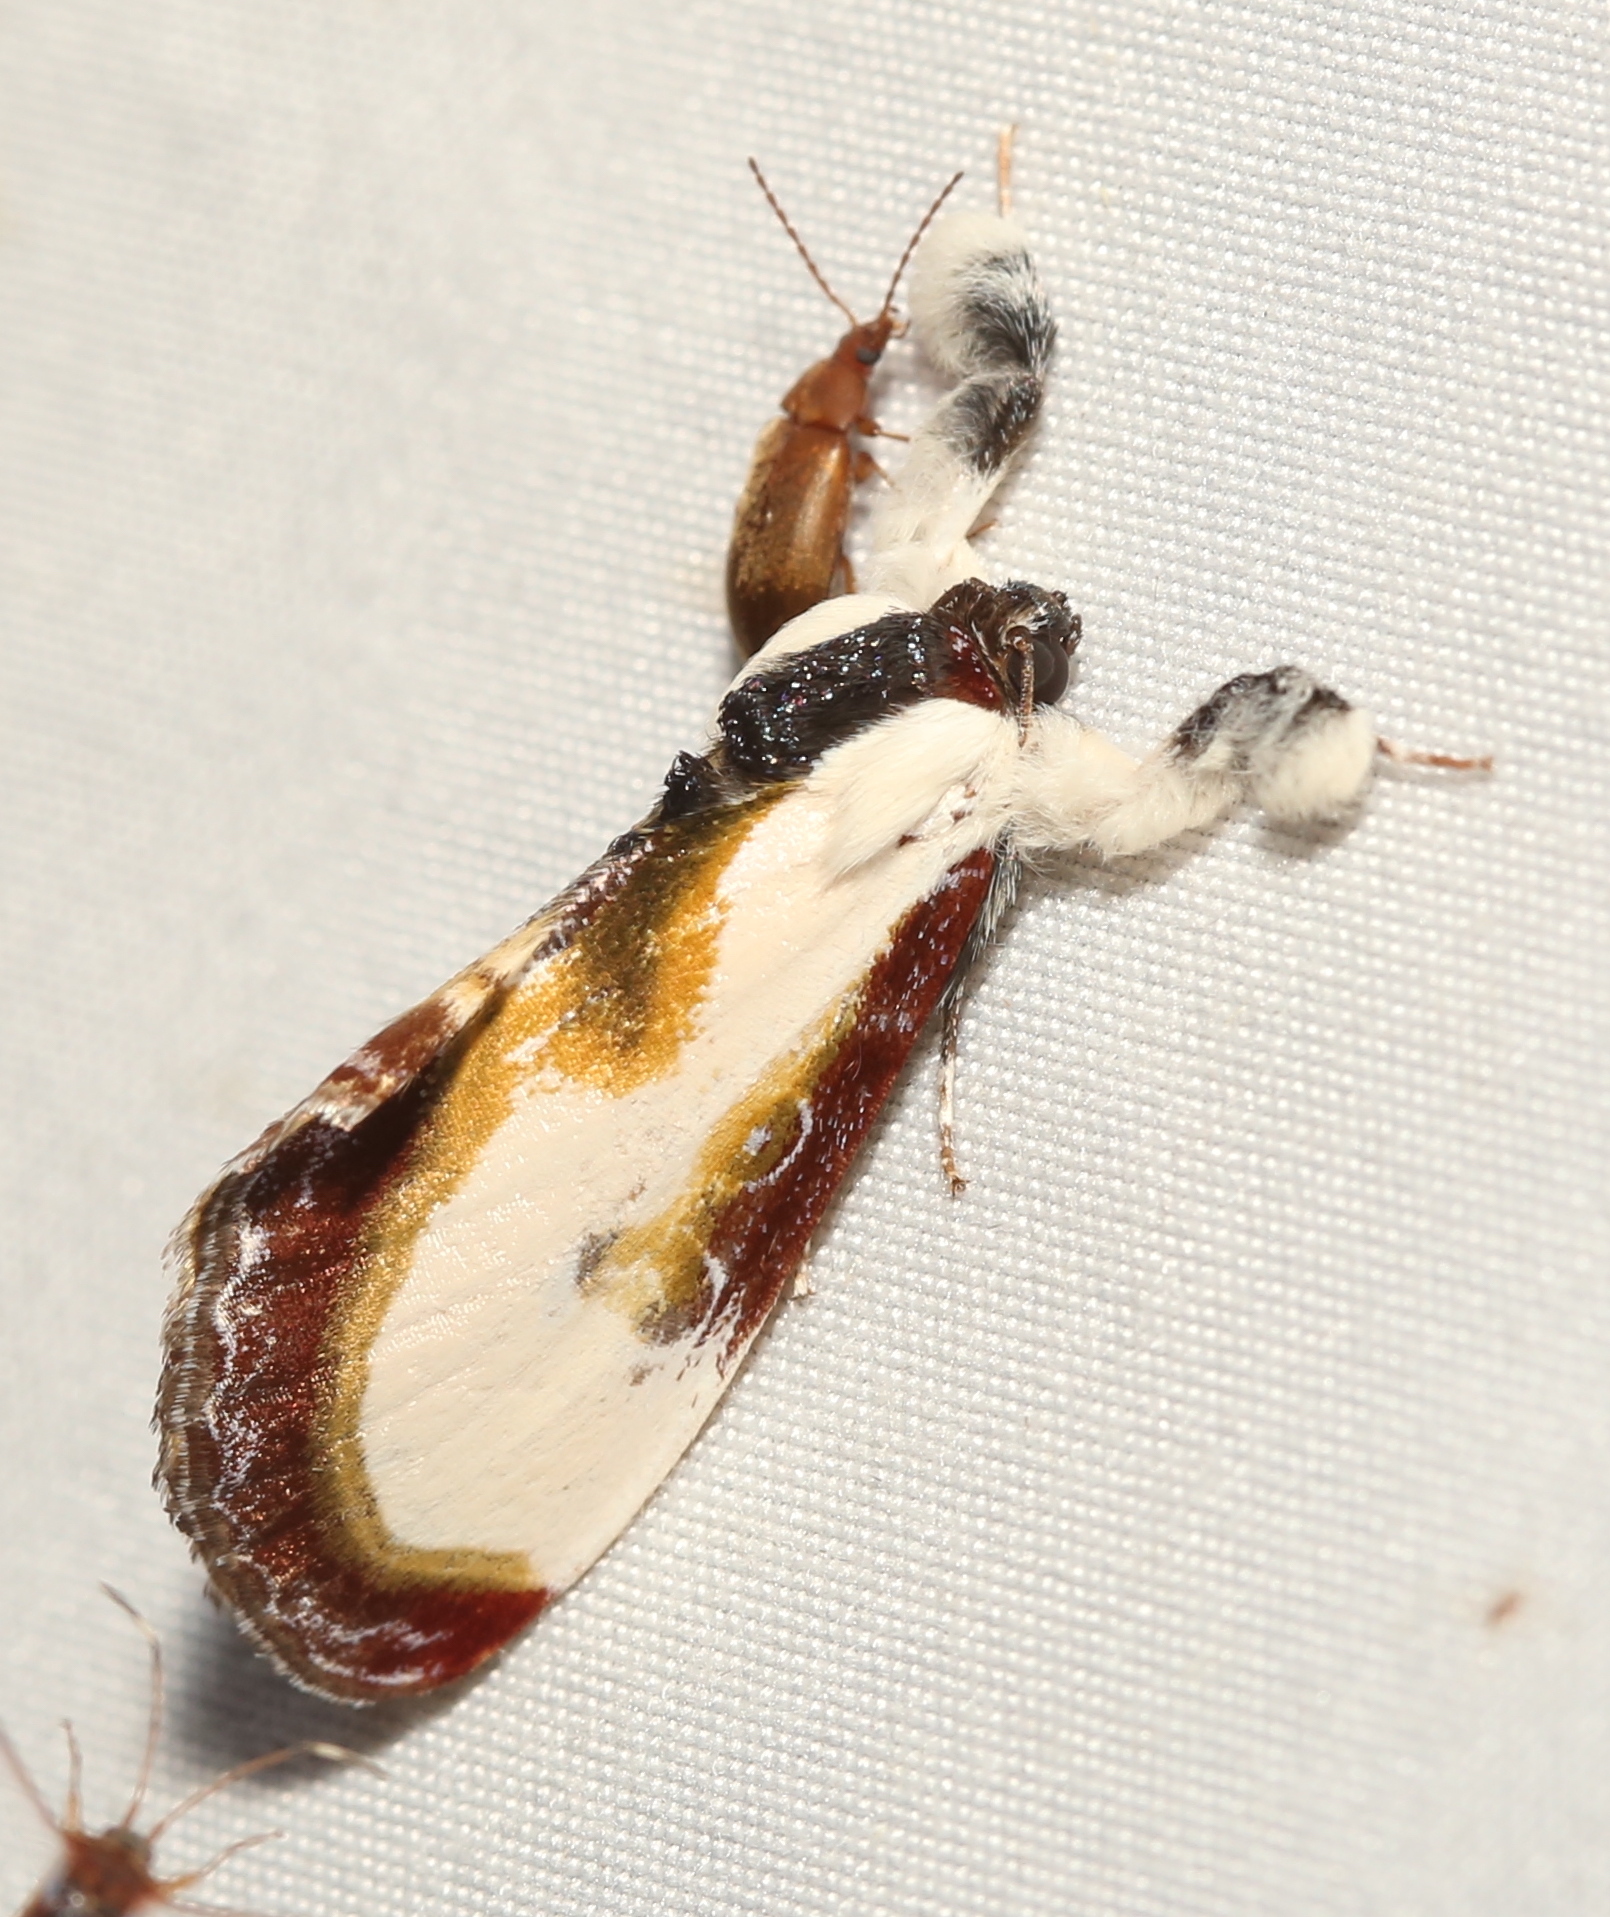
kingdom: Animalia
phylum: Arthropoda
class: Insecta
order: Lepidoptera
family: Noctuidae
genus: Eudryas
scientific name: Eudryas grata
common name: Beautiful wood-nymph
